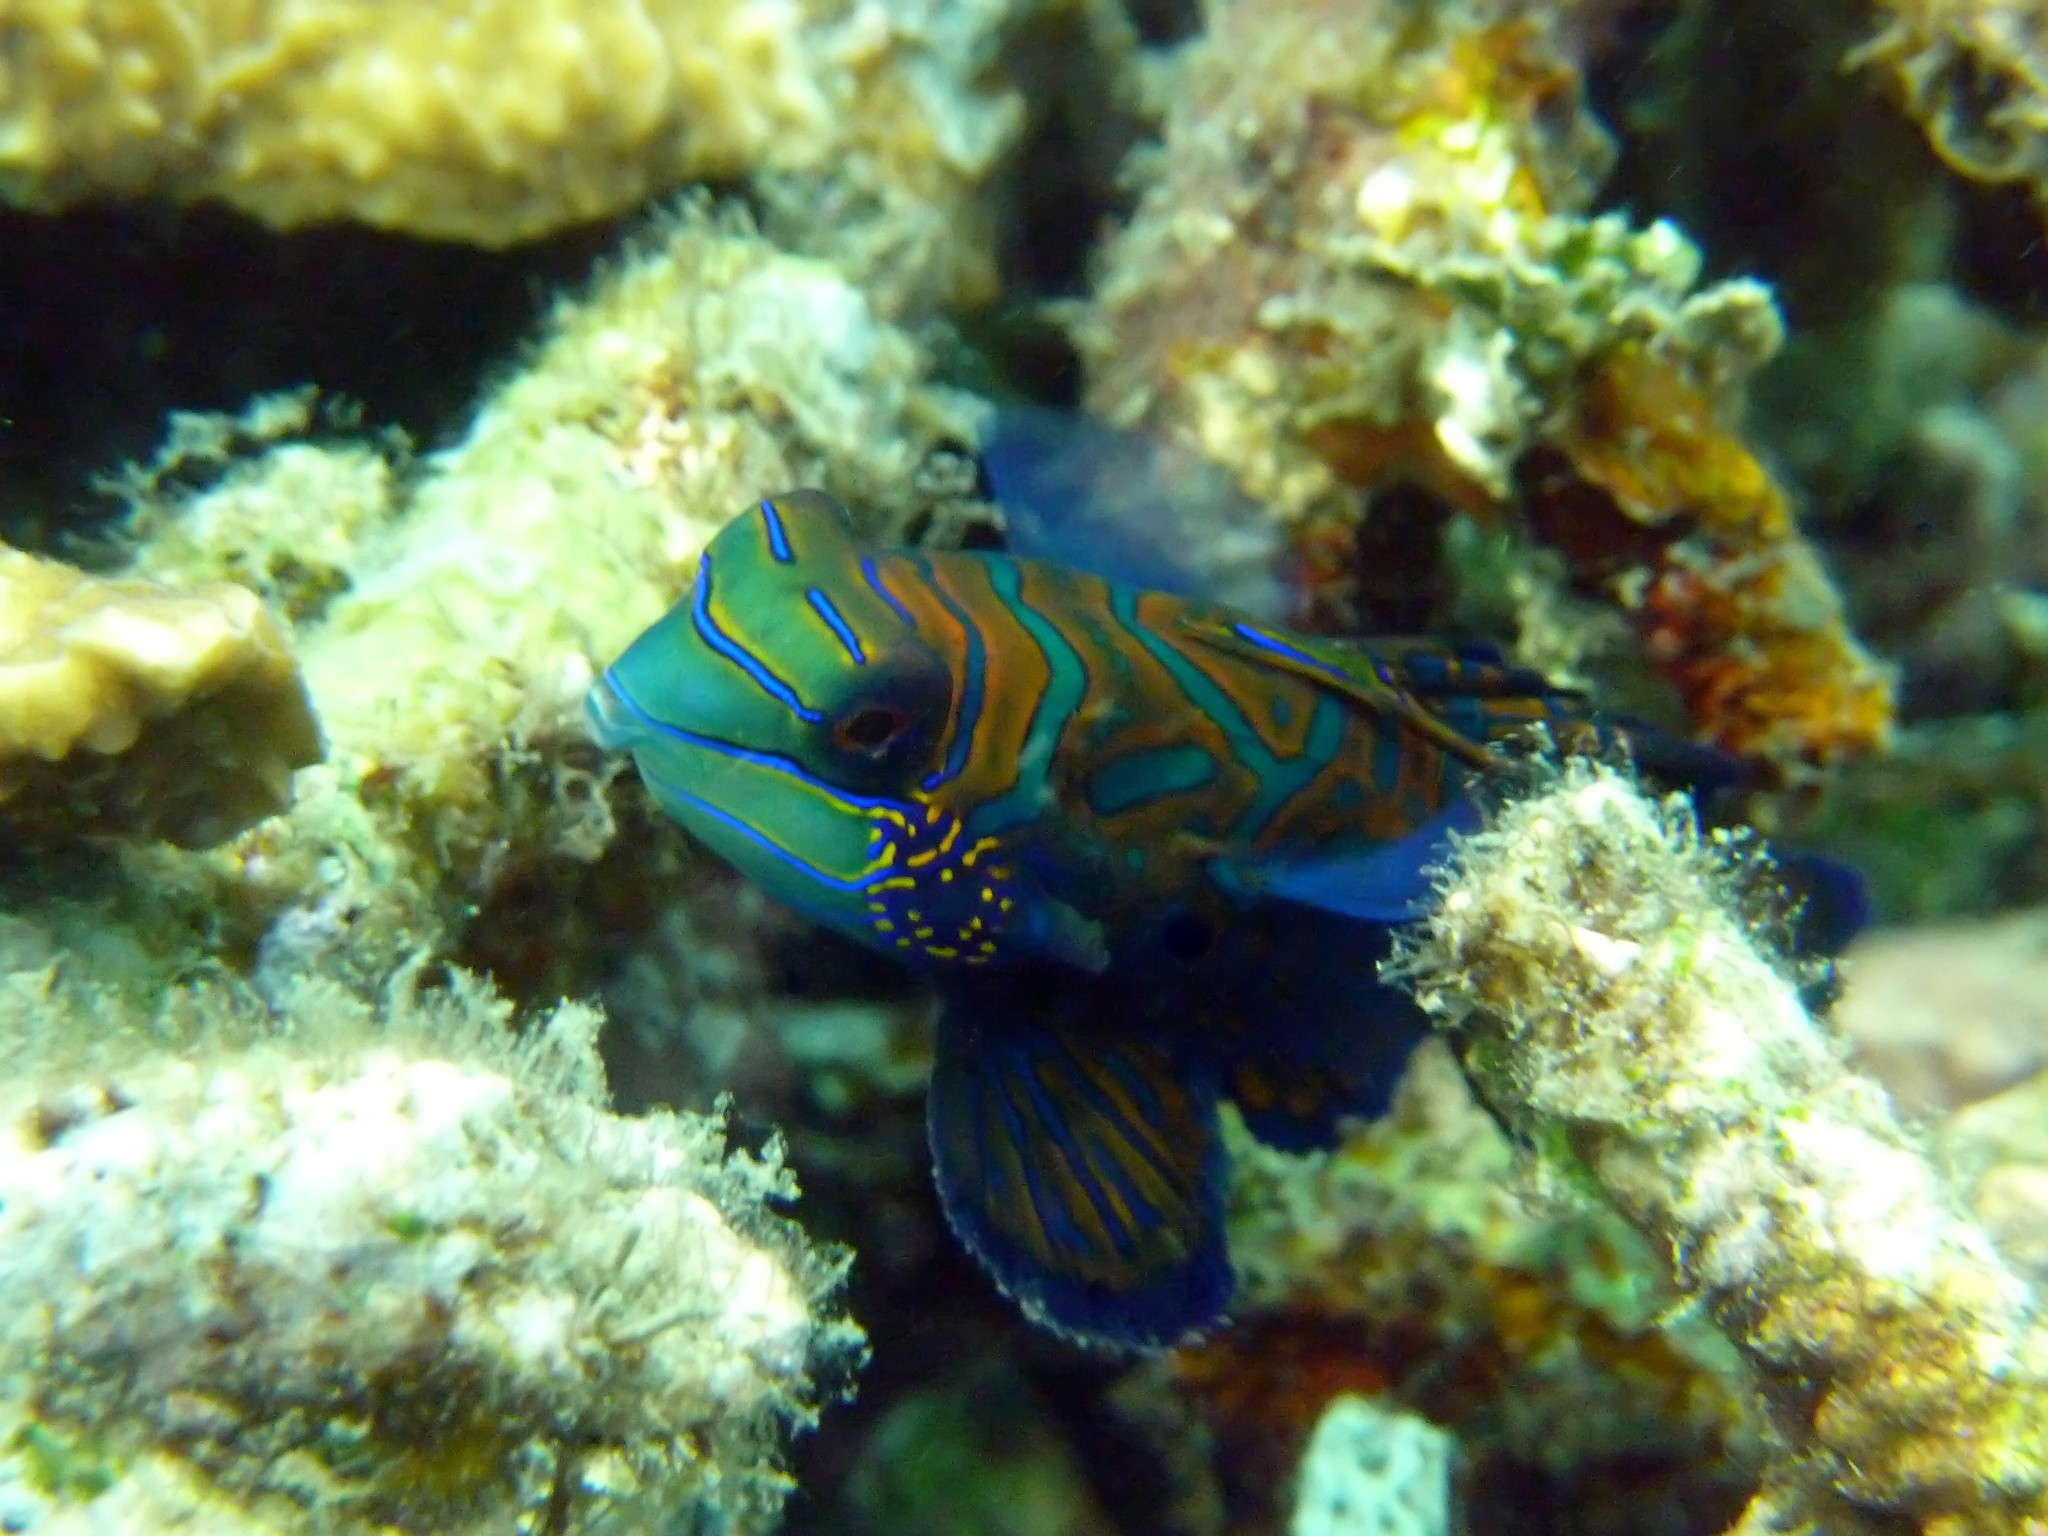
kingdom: Animalia
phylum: Chordata
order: Perciformes
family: Callionymidae
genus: Synchiropus
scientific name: Synchiropus splendidus
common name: Mandarinfish
